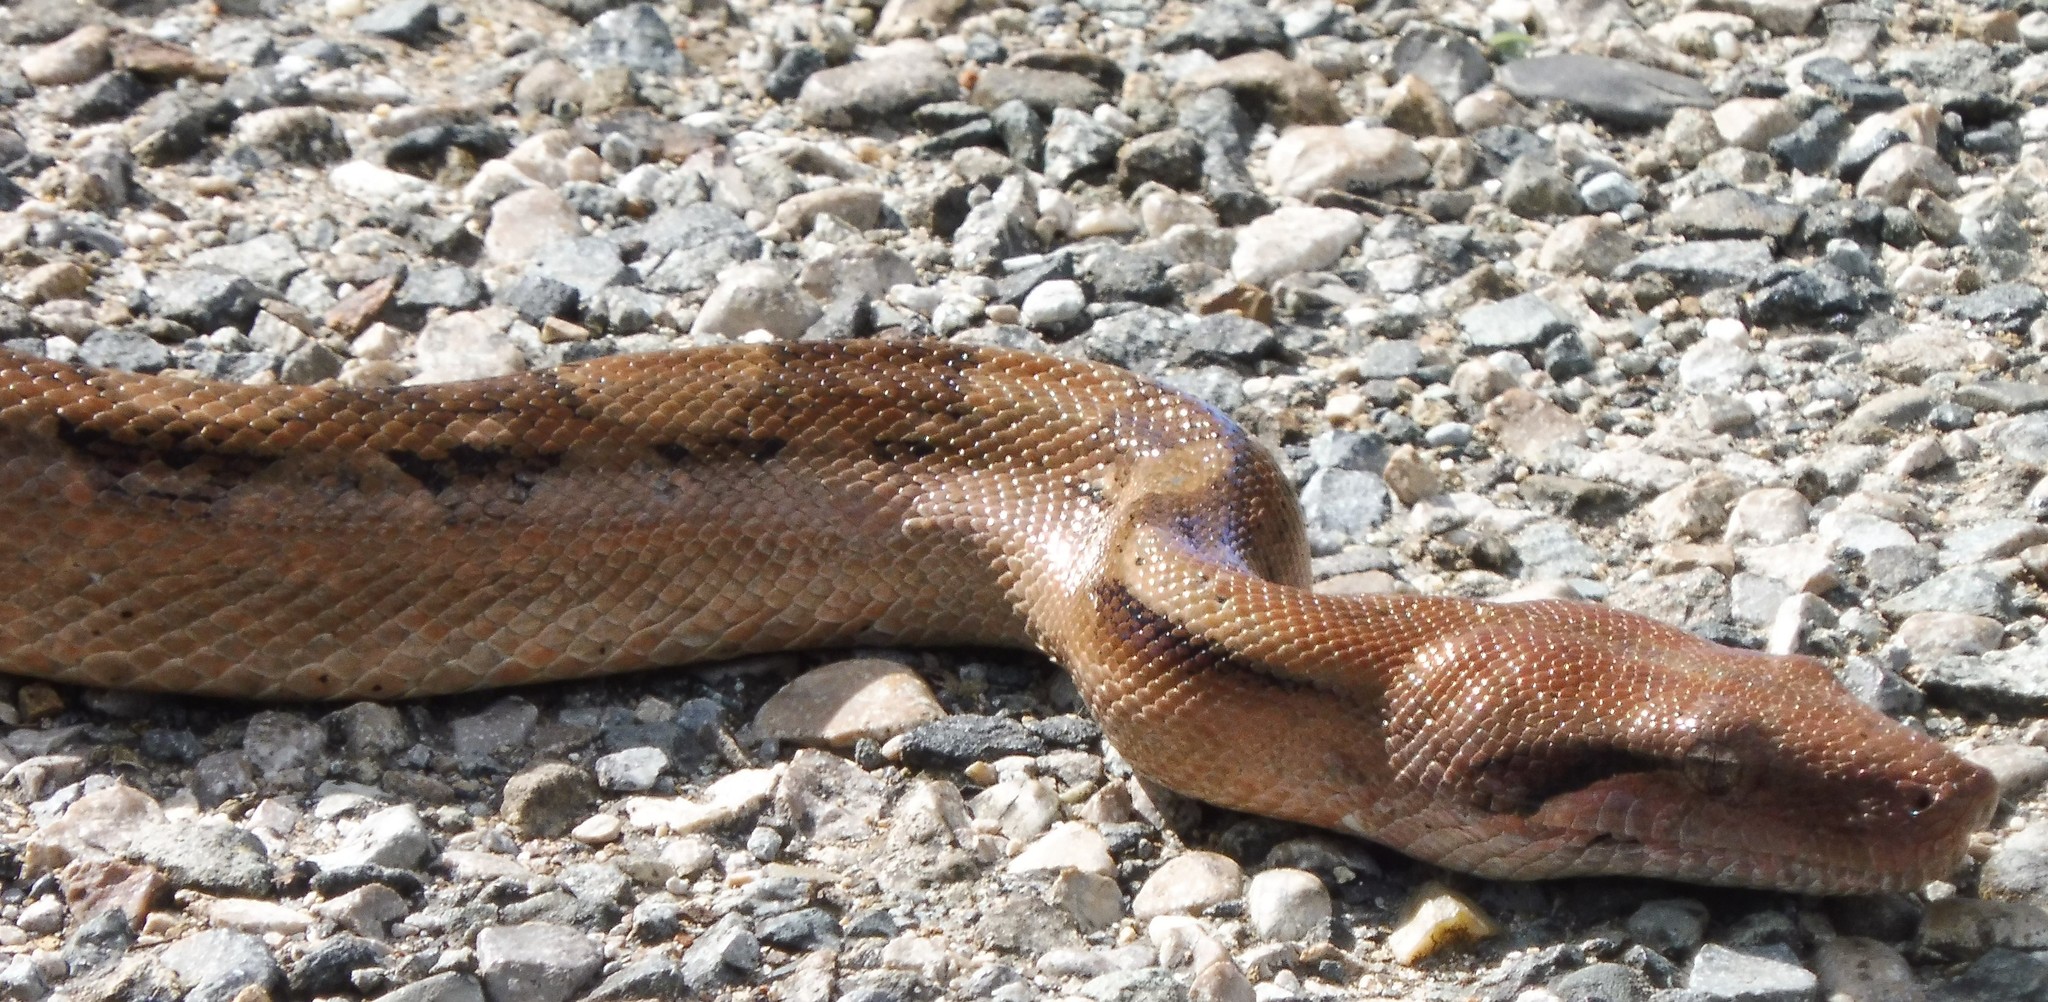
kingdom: Animalia
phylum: Chordata
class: Squamata
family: Boidae
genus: Boa
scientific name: Boa imperator
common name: Central american boa
